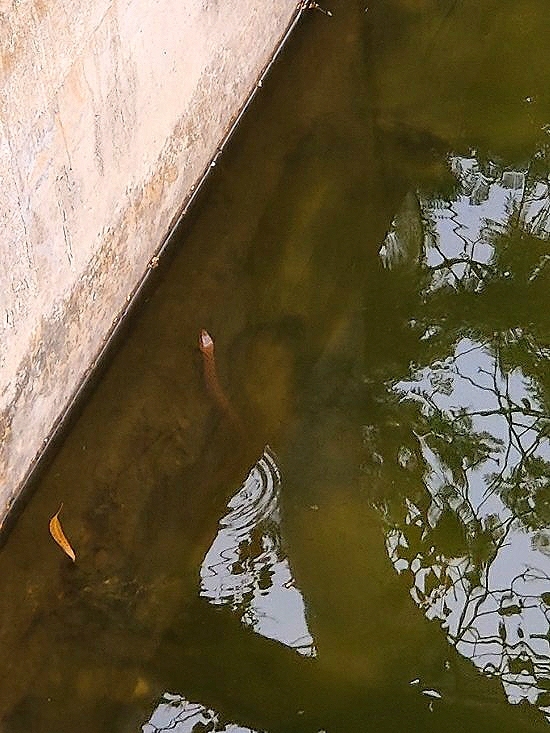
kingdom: Animalia
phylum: Chordata
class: Squamata
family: Colubridae
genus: Fowlea
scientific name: Fowlea piscator
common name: Asiatic water snake
